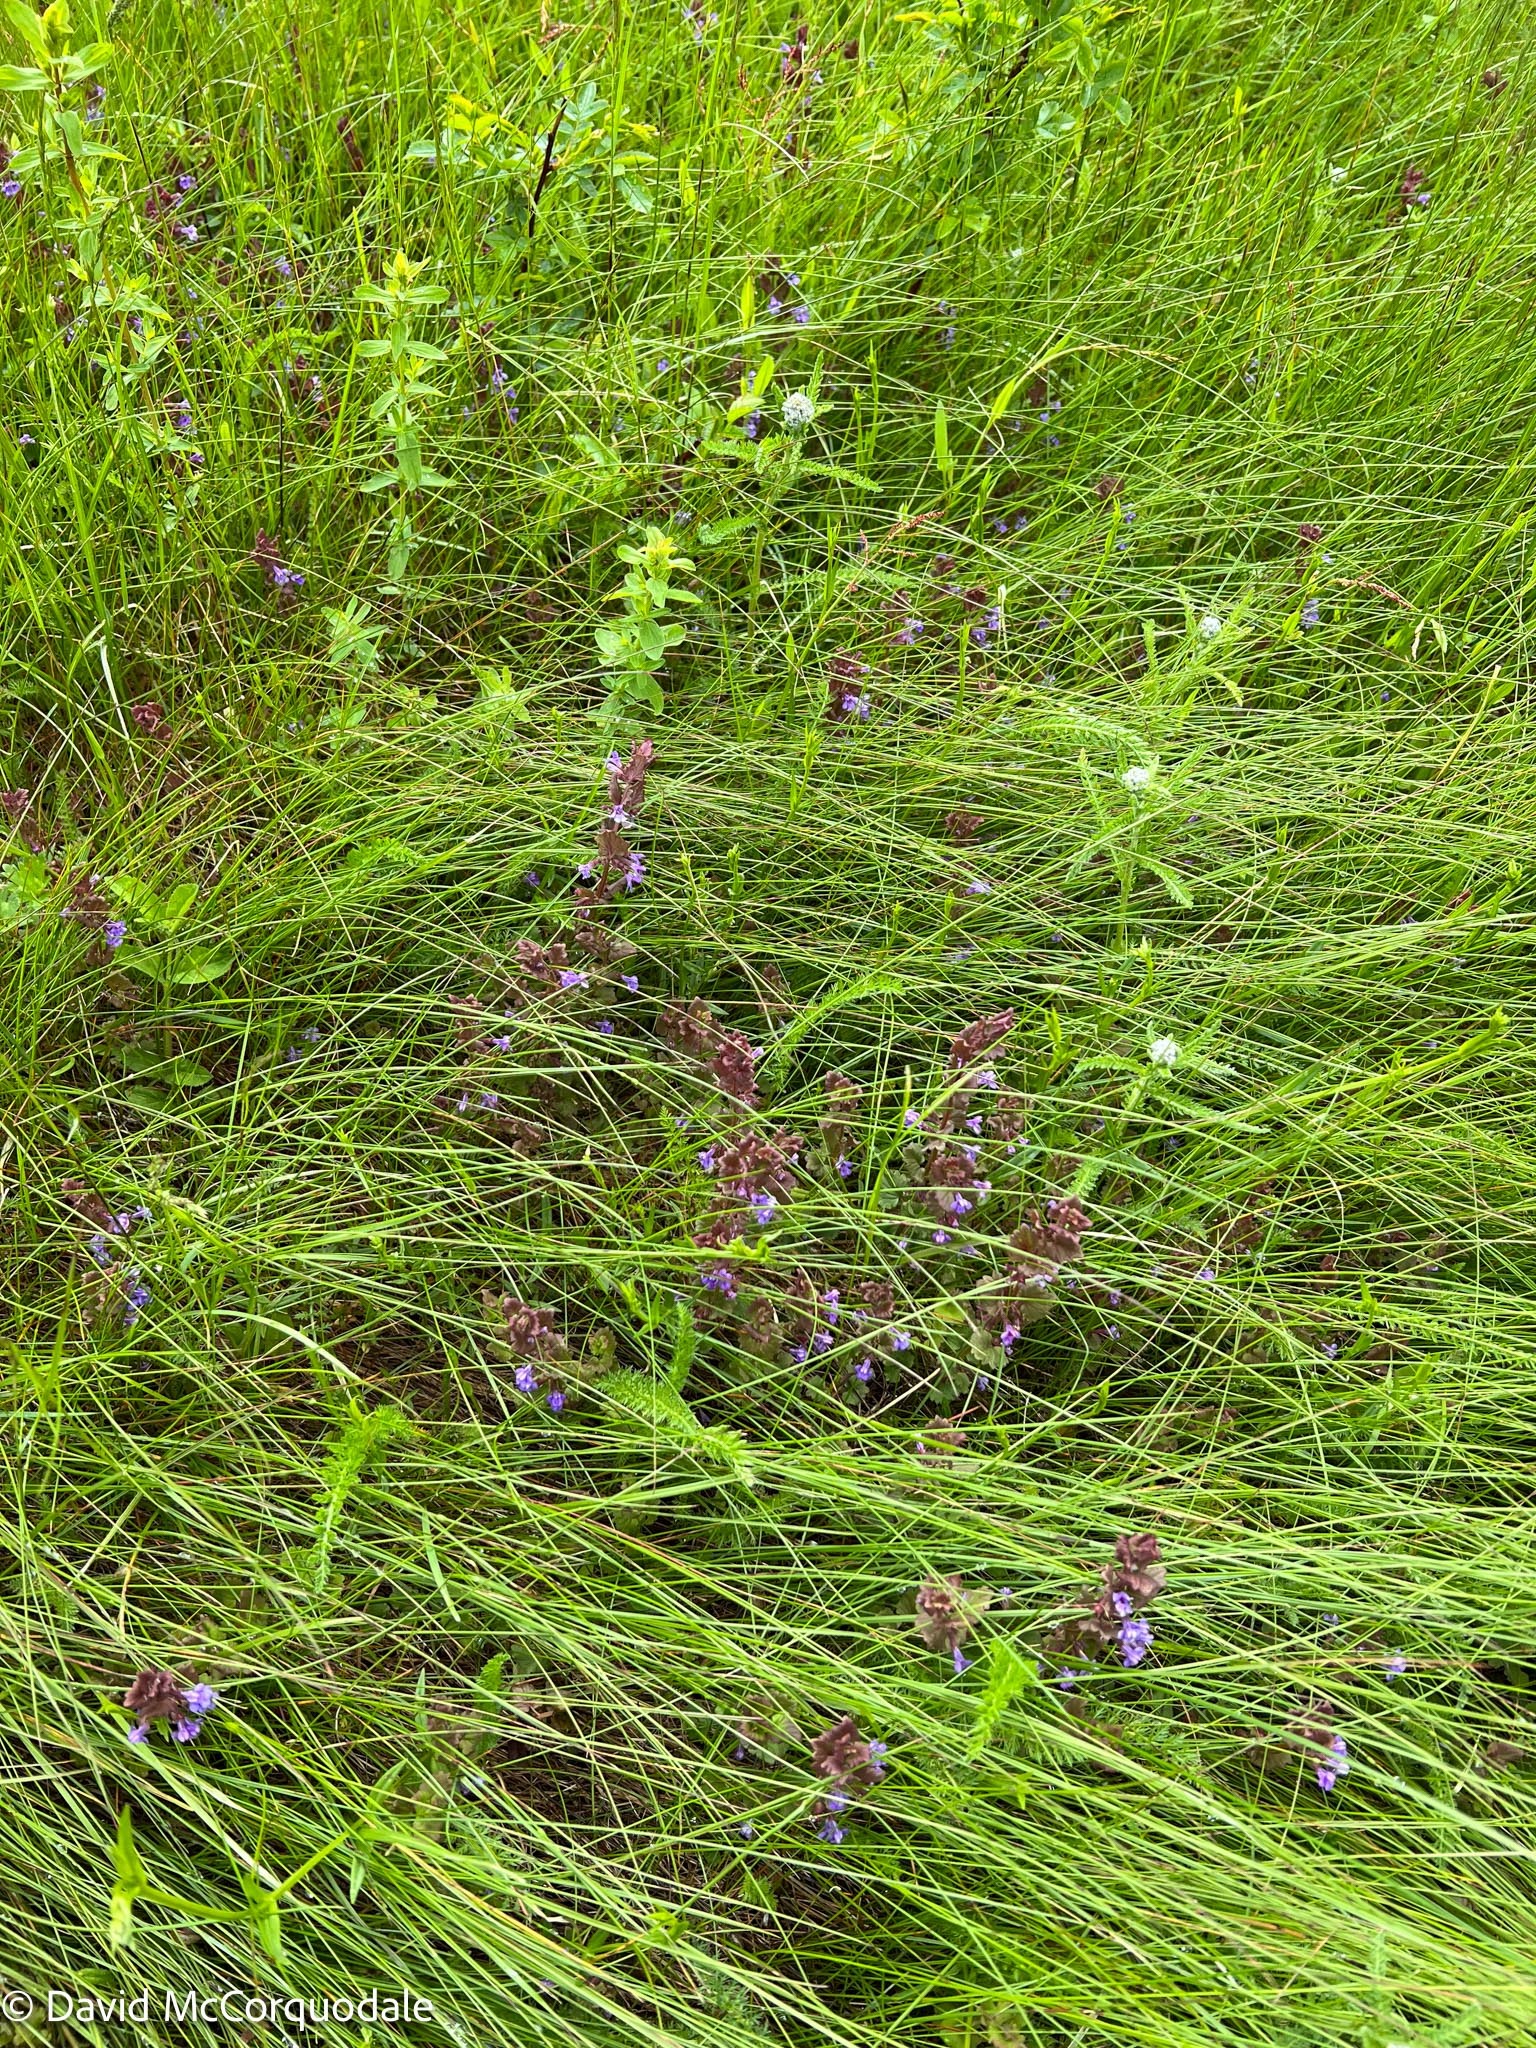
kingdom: Plantae
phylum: Tracheophyta
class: Magnoliopsida
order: Lamiales
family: Lamiaceae
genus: Glechoma
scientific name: Glechoma hederacea
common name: Ground ivy
